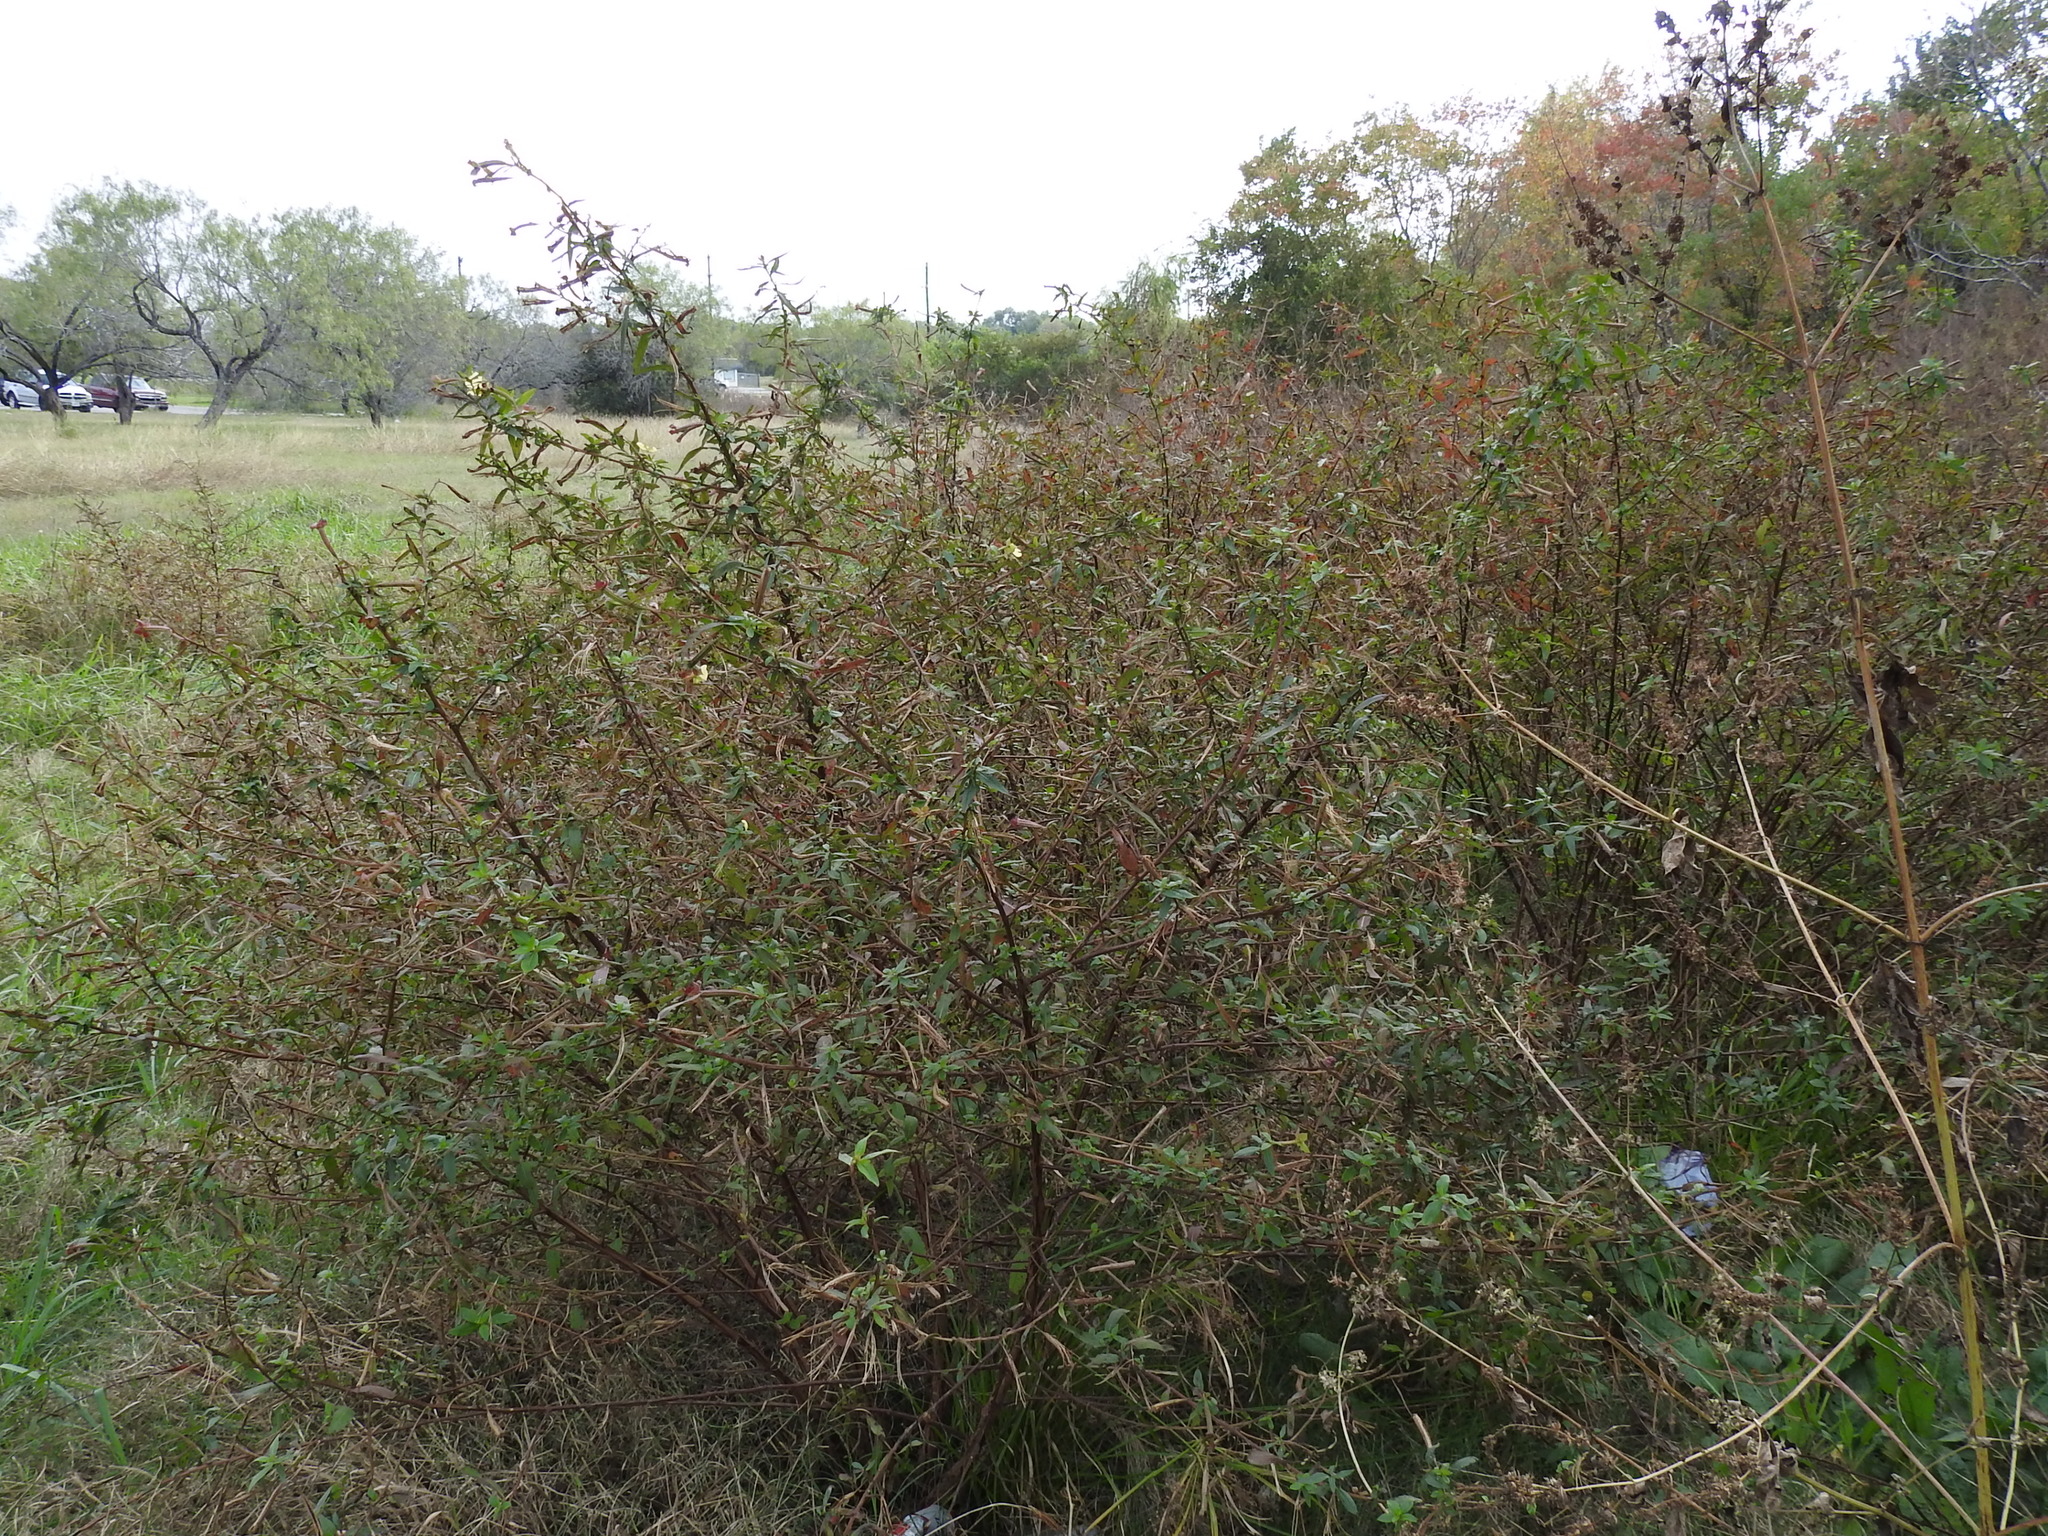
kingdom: Plantae
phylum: Tracheophyta
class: Magnoliopsida
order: Myrtales
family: Onagraceae
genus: Ludwigia
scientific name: Ludwigia octovalvis
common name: Water-primrose
